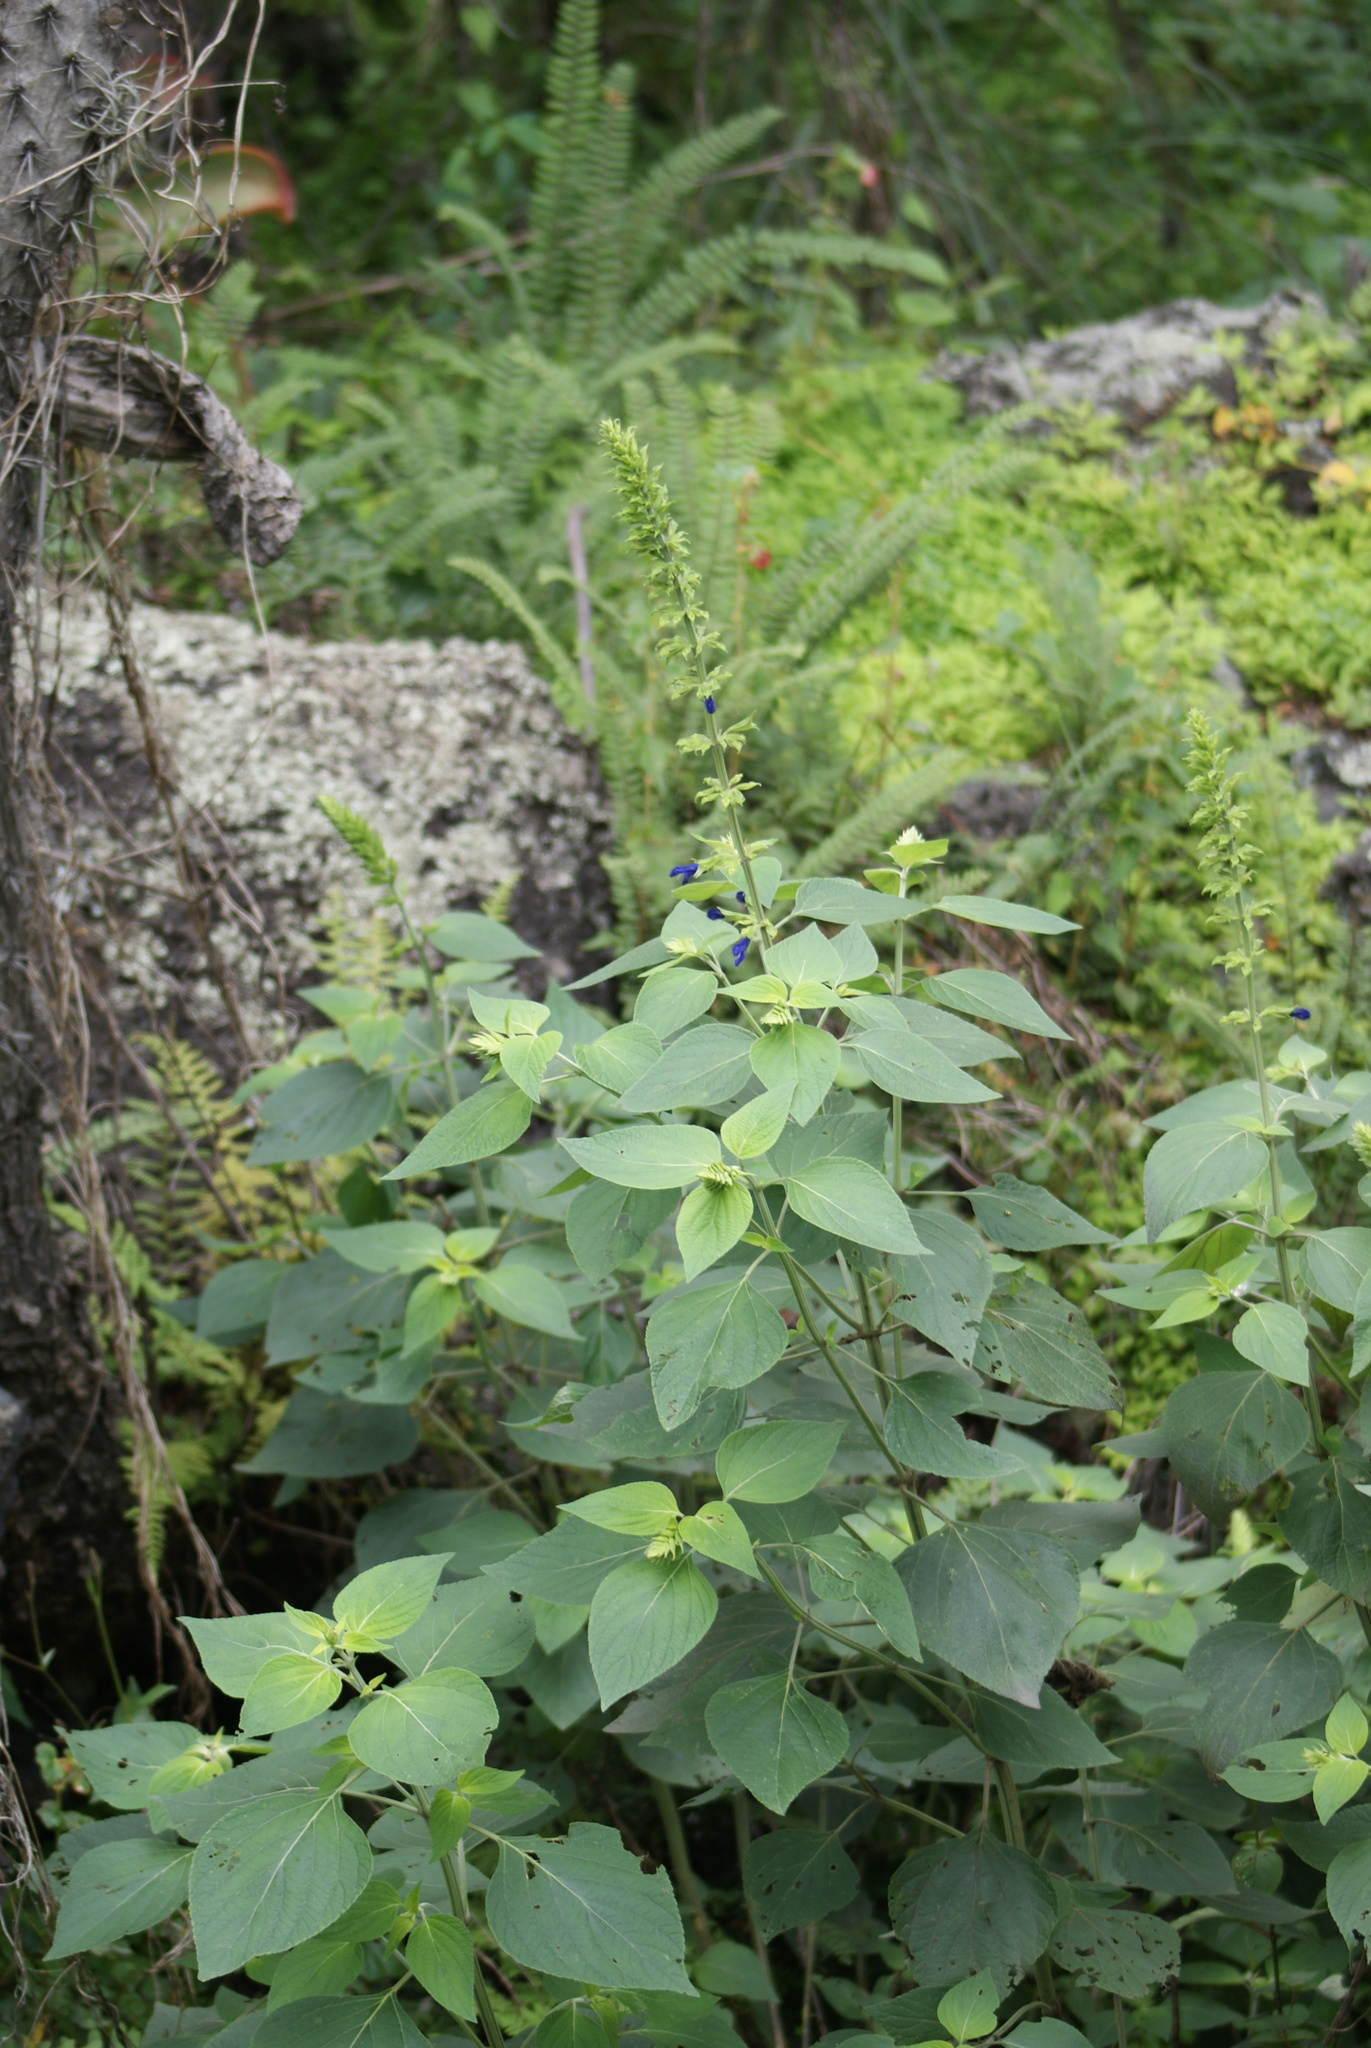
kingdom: Plantae
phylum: Tracheophyta
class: Magnoliopsida
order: Lamiales
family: Lamiaceae
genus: Salvia
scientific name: Salvia mexicana
